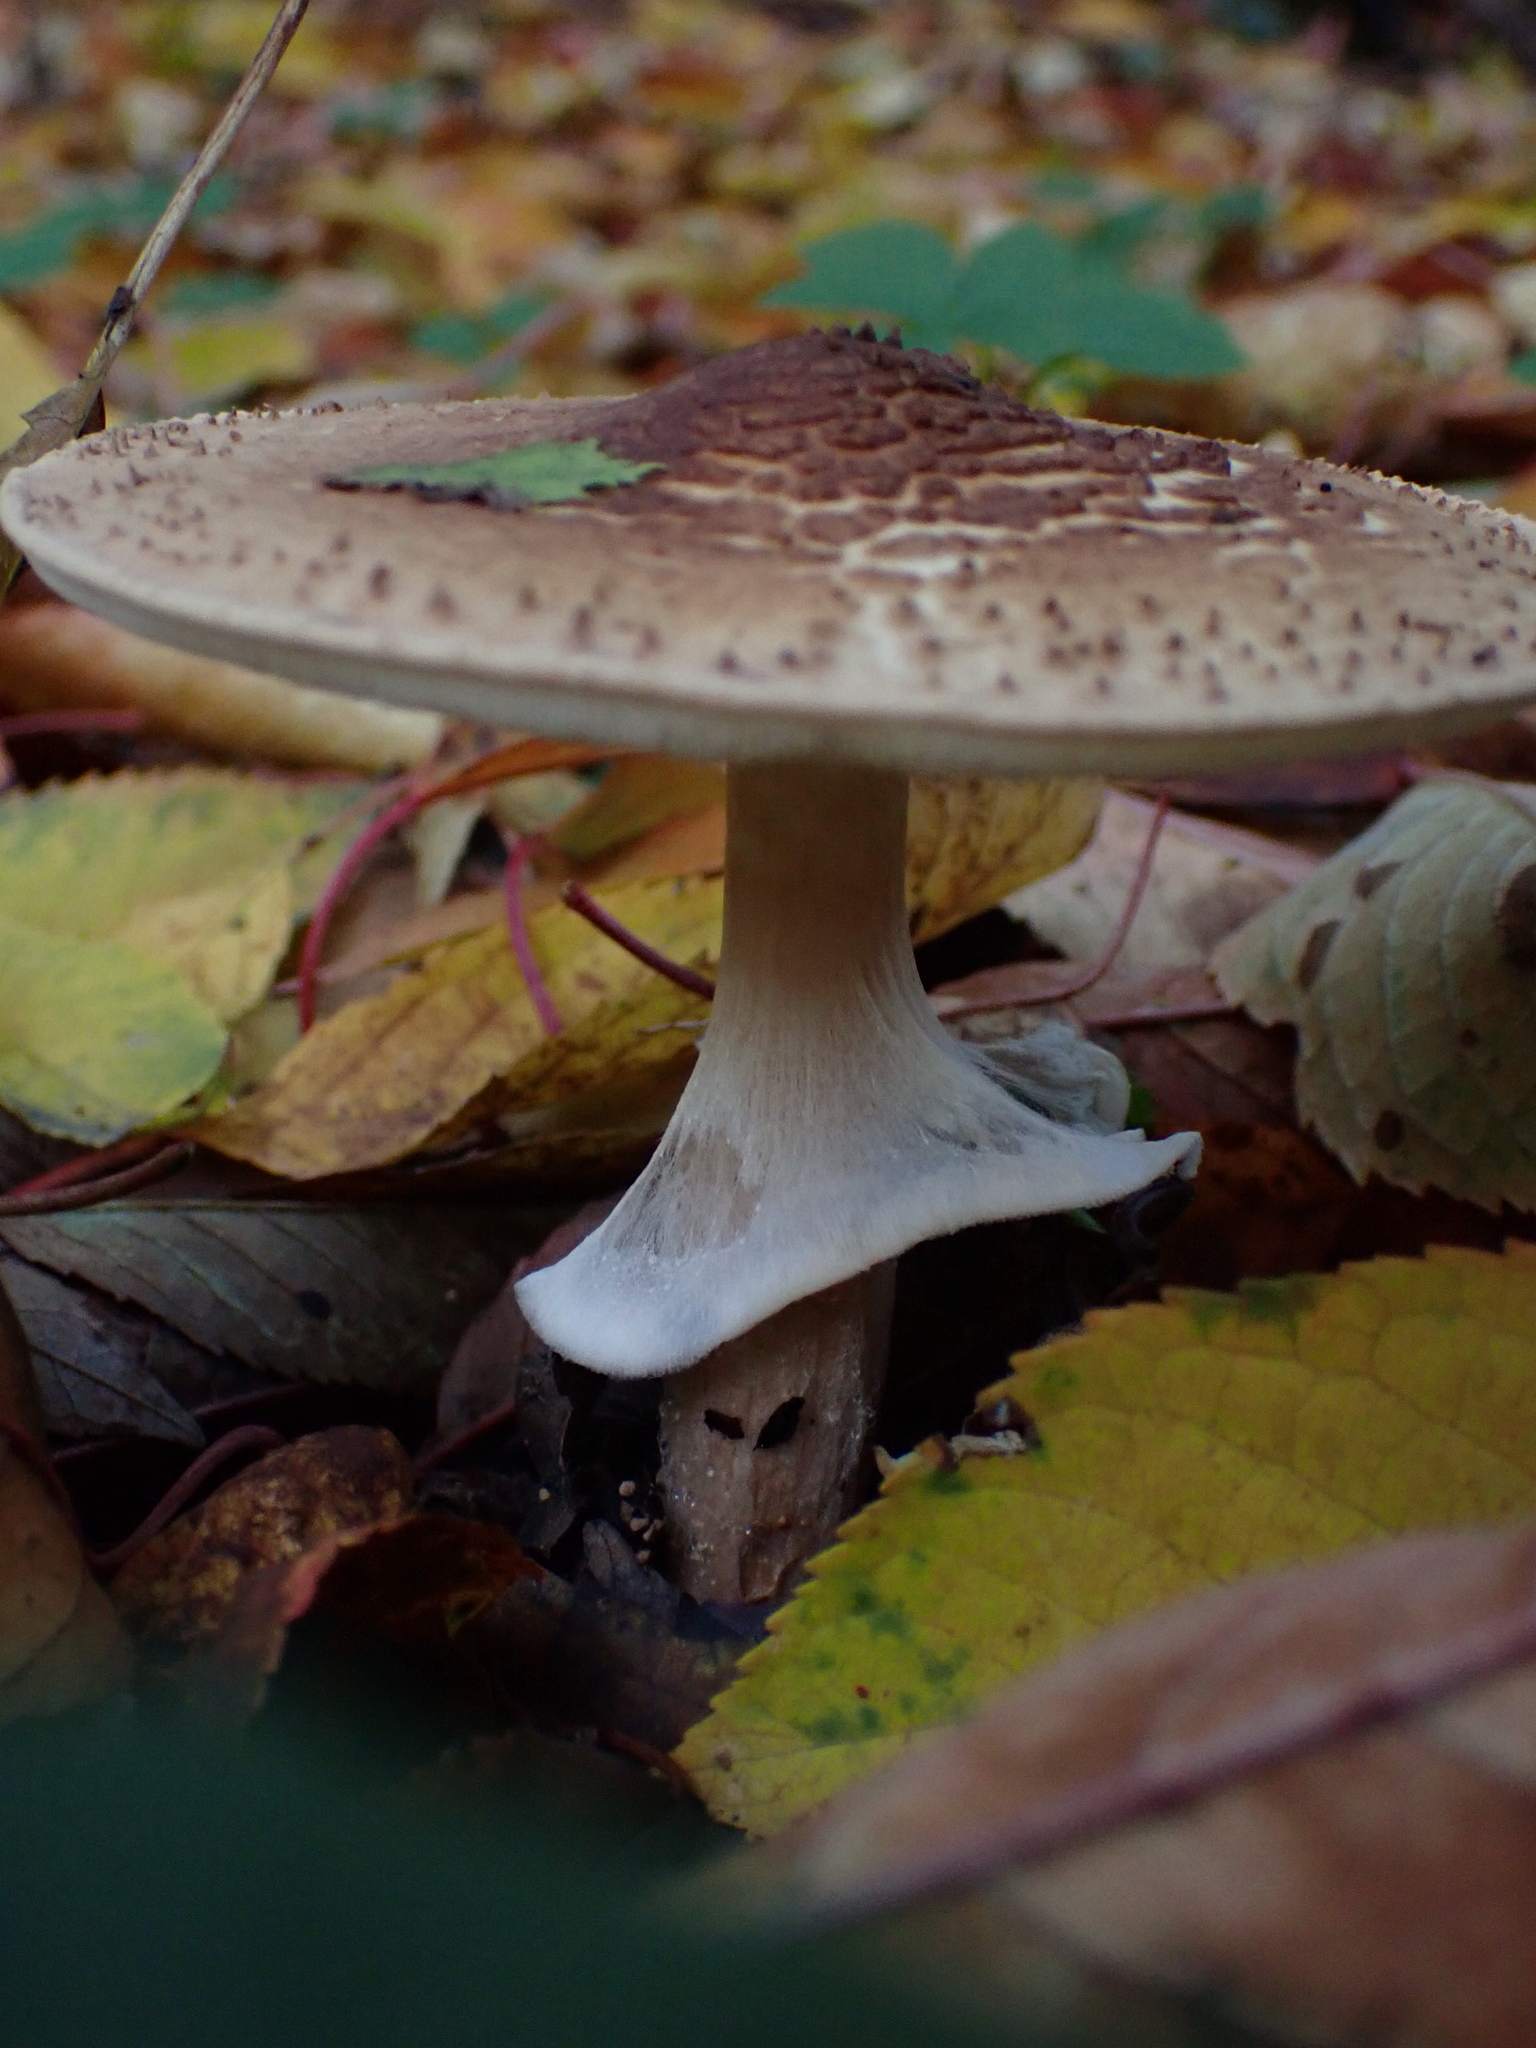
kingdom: Fungi
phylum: Basidiomycota
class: Agaricomycetes
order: Agaricales
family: Agaricaceae
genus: Echinoderma
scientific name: Echinoderma asperum
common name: Freckled dapperling
